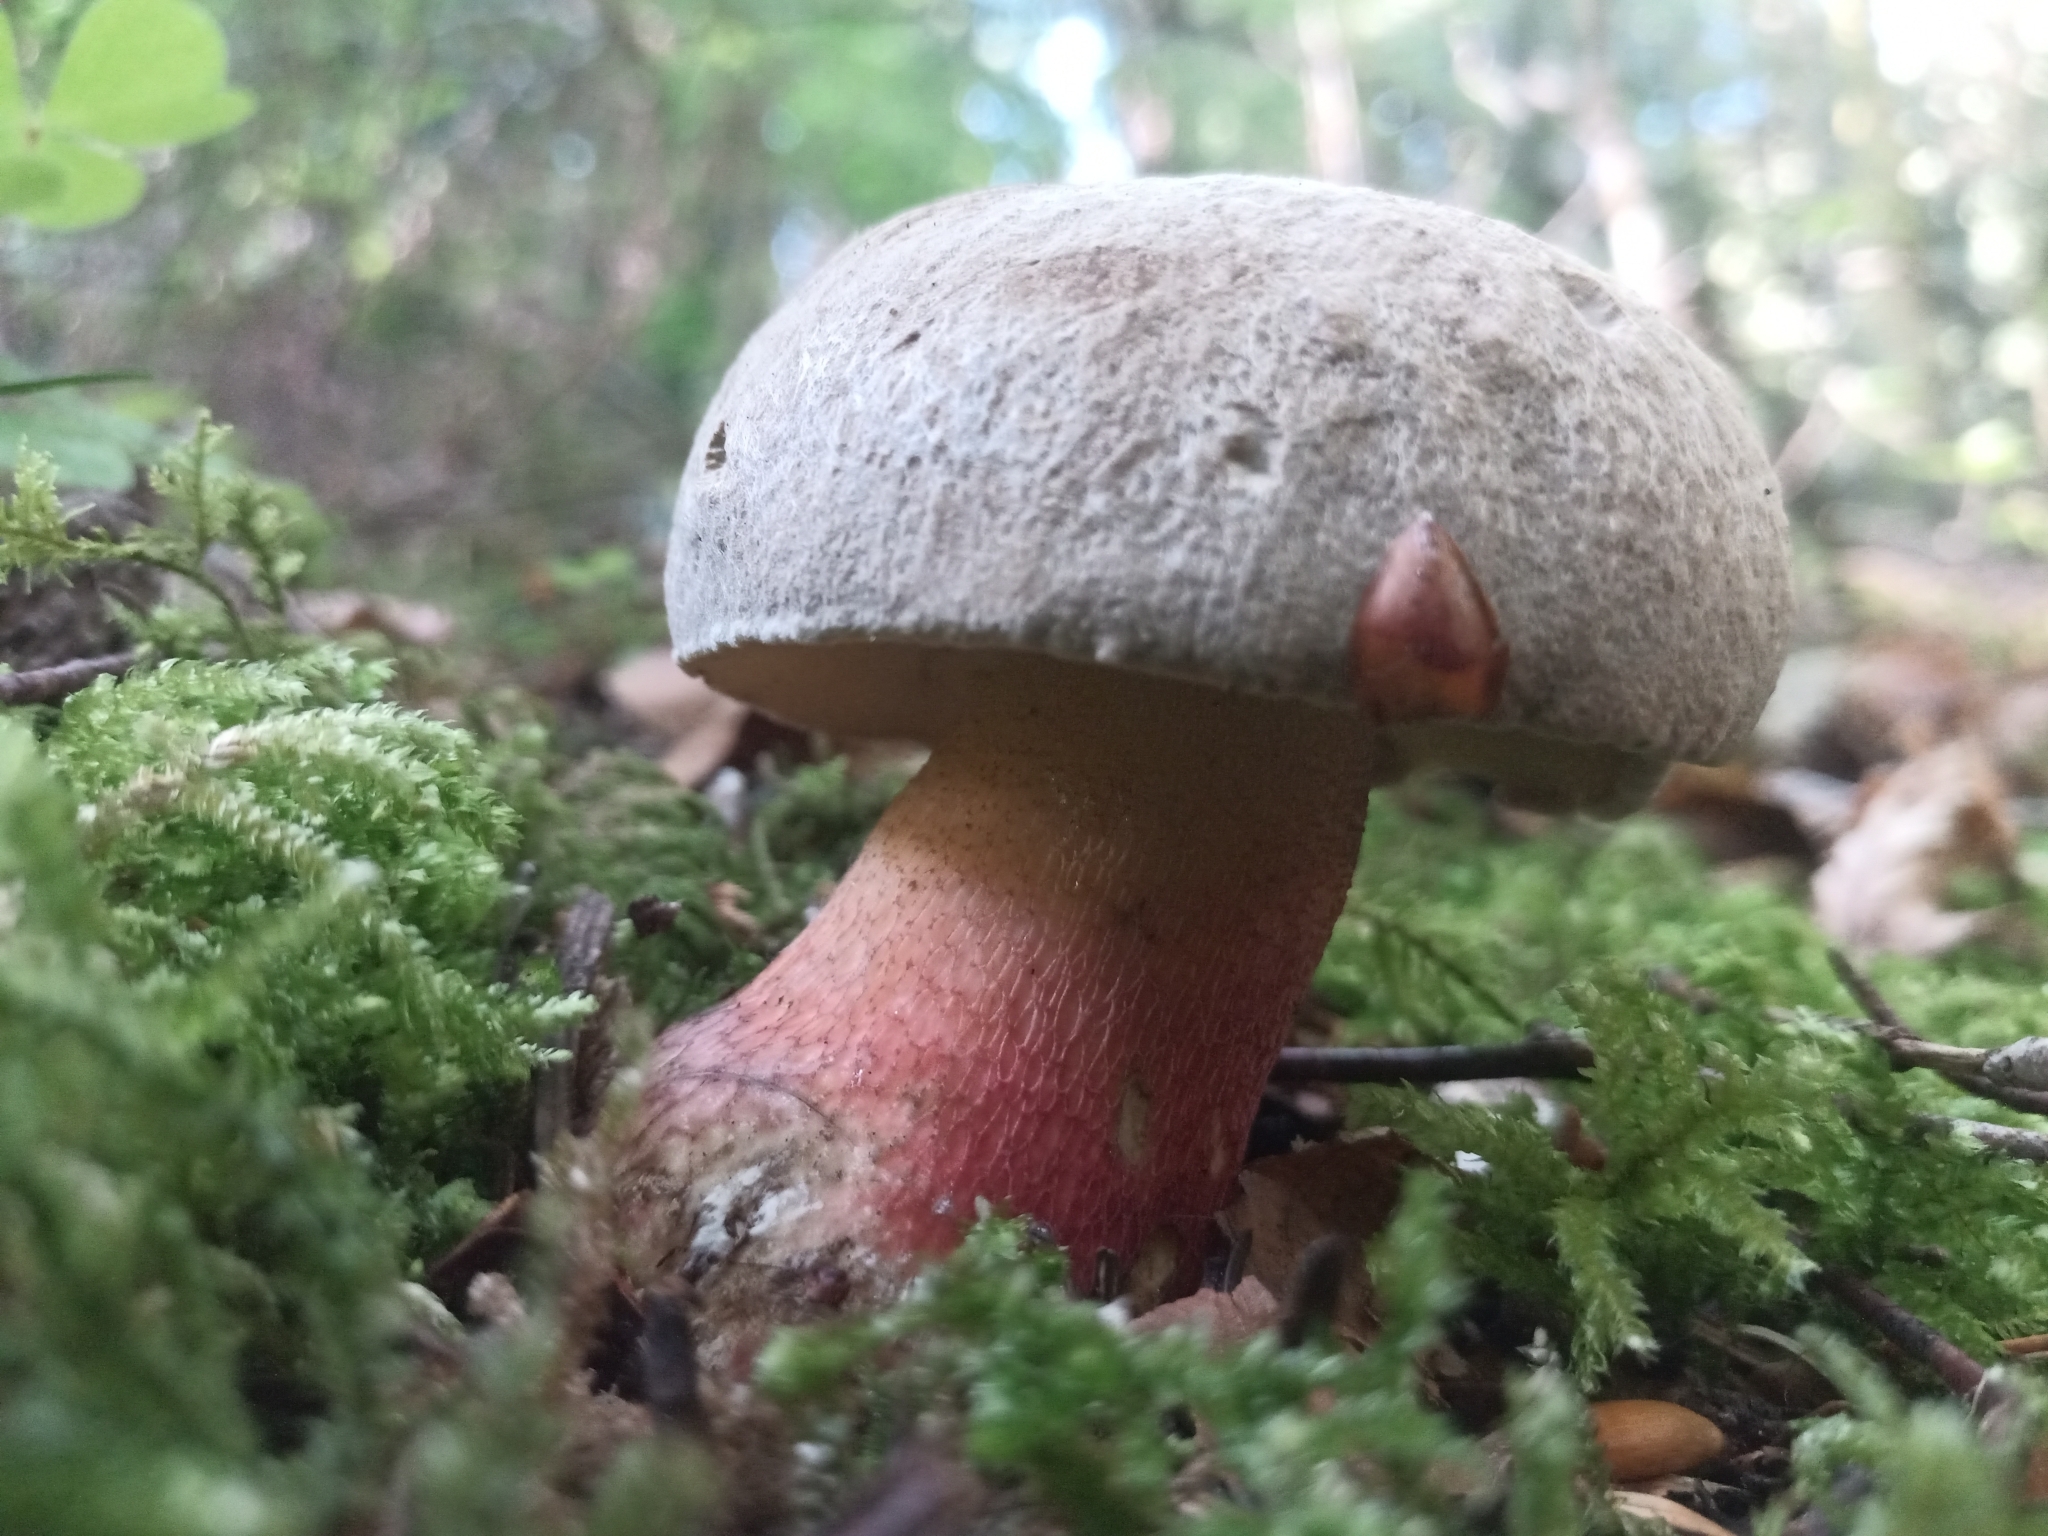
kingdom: Fungi
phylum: Basidiomycota
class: Agaricomycetes
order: Boletales
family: Boletaceae
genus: Caloboletus
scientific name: Caloboletus calopus
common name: Bitter beech bolete
